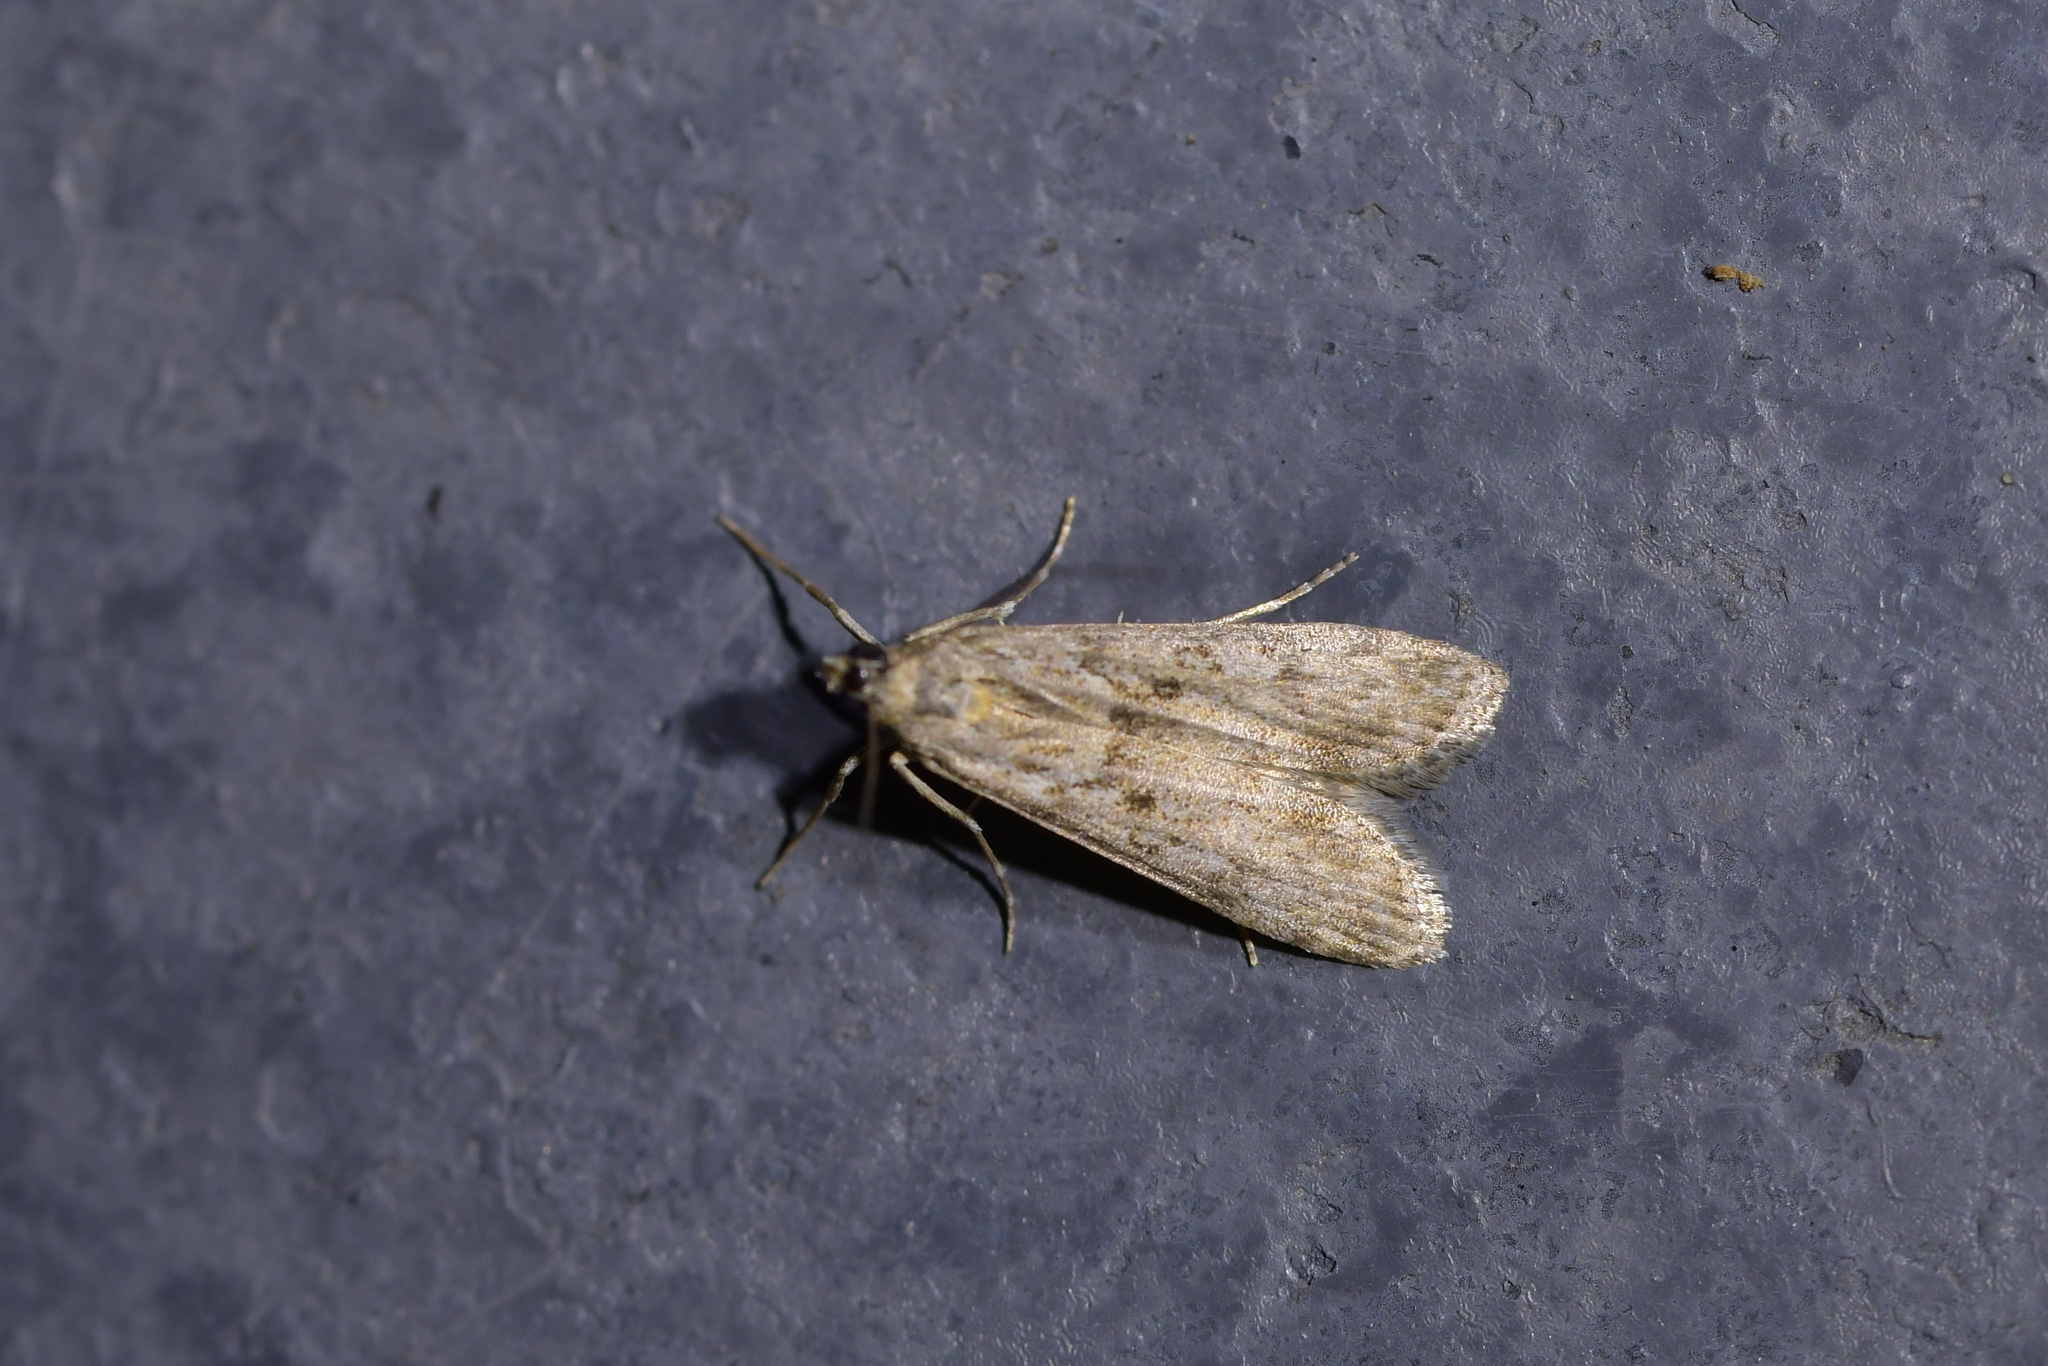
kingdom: Animalia
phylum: Arthropoda
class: Insecta
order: Lepidoptera
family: Crambidae
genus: Eudonia
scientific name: Eudonia leptalea
